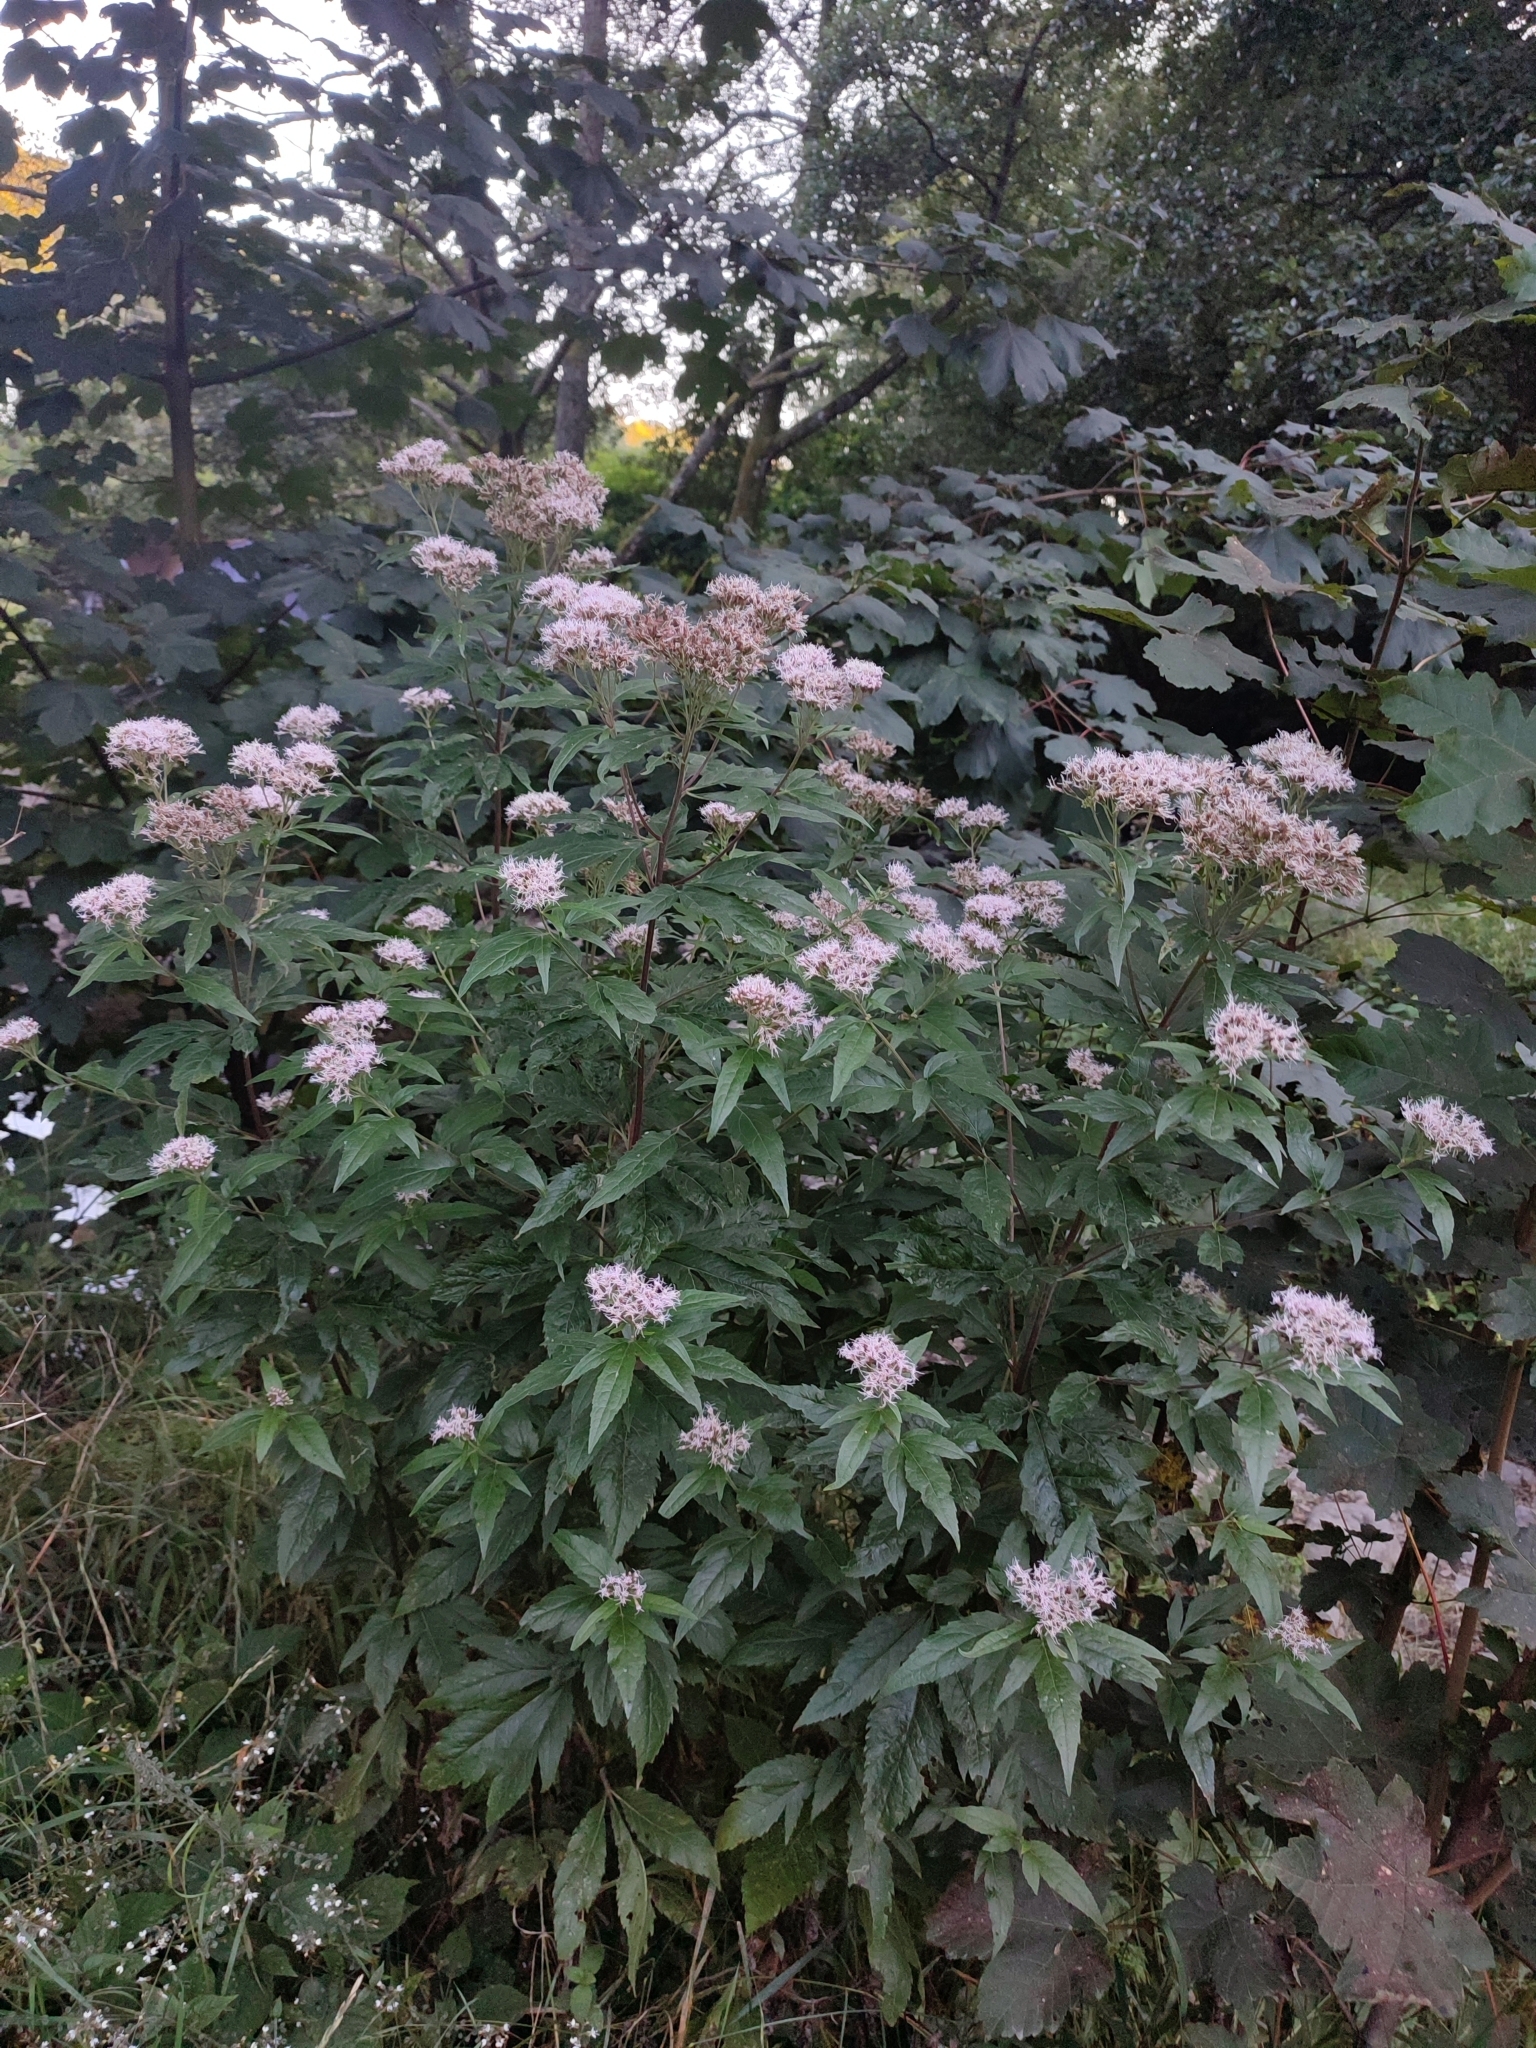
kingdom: Plantae
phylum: Tracheophyta
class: Magnoliopsida
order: Asterales
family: Asteraceae
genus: Eupatorium
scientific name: Eupatorium cannabinum
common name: Hemp-agrimony
